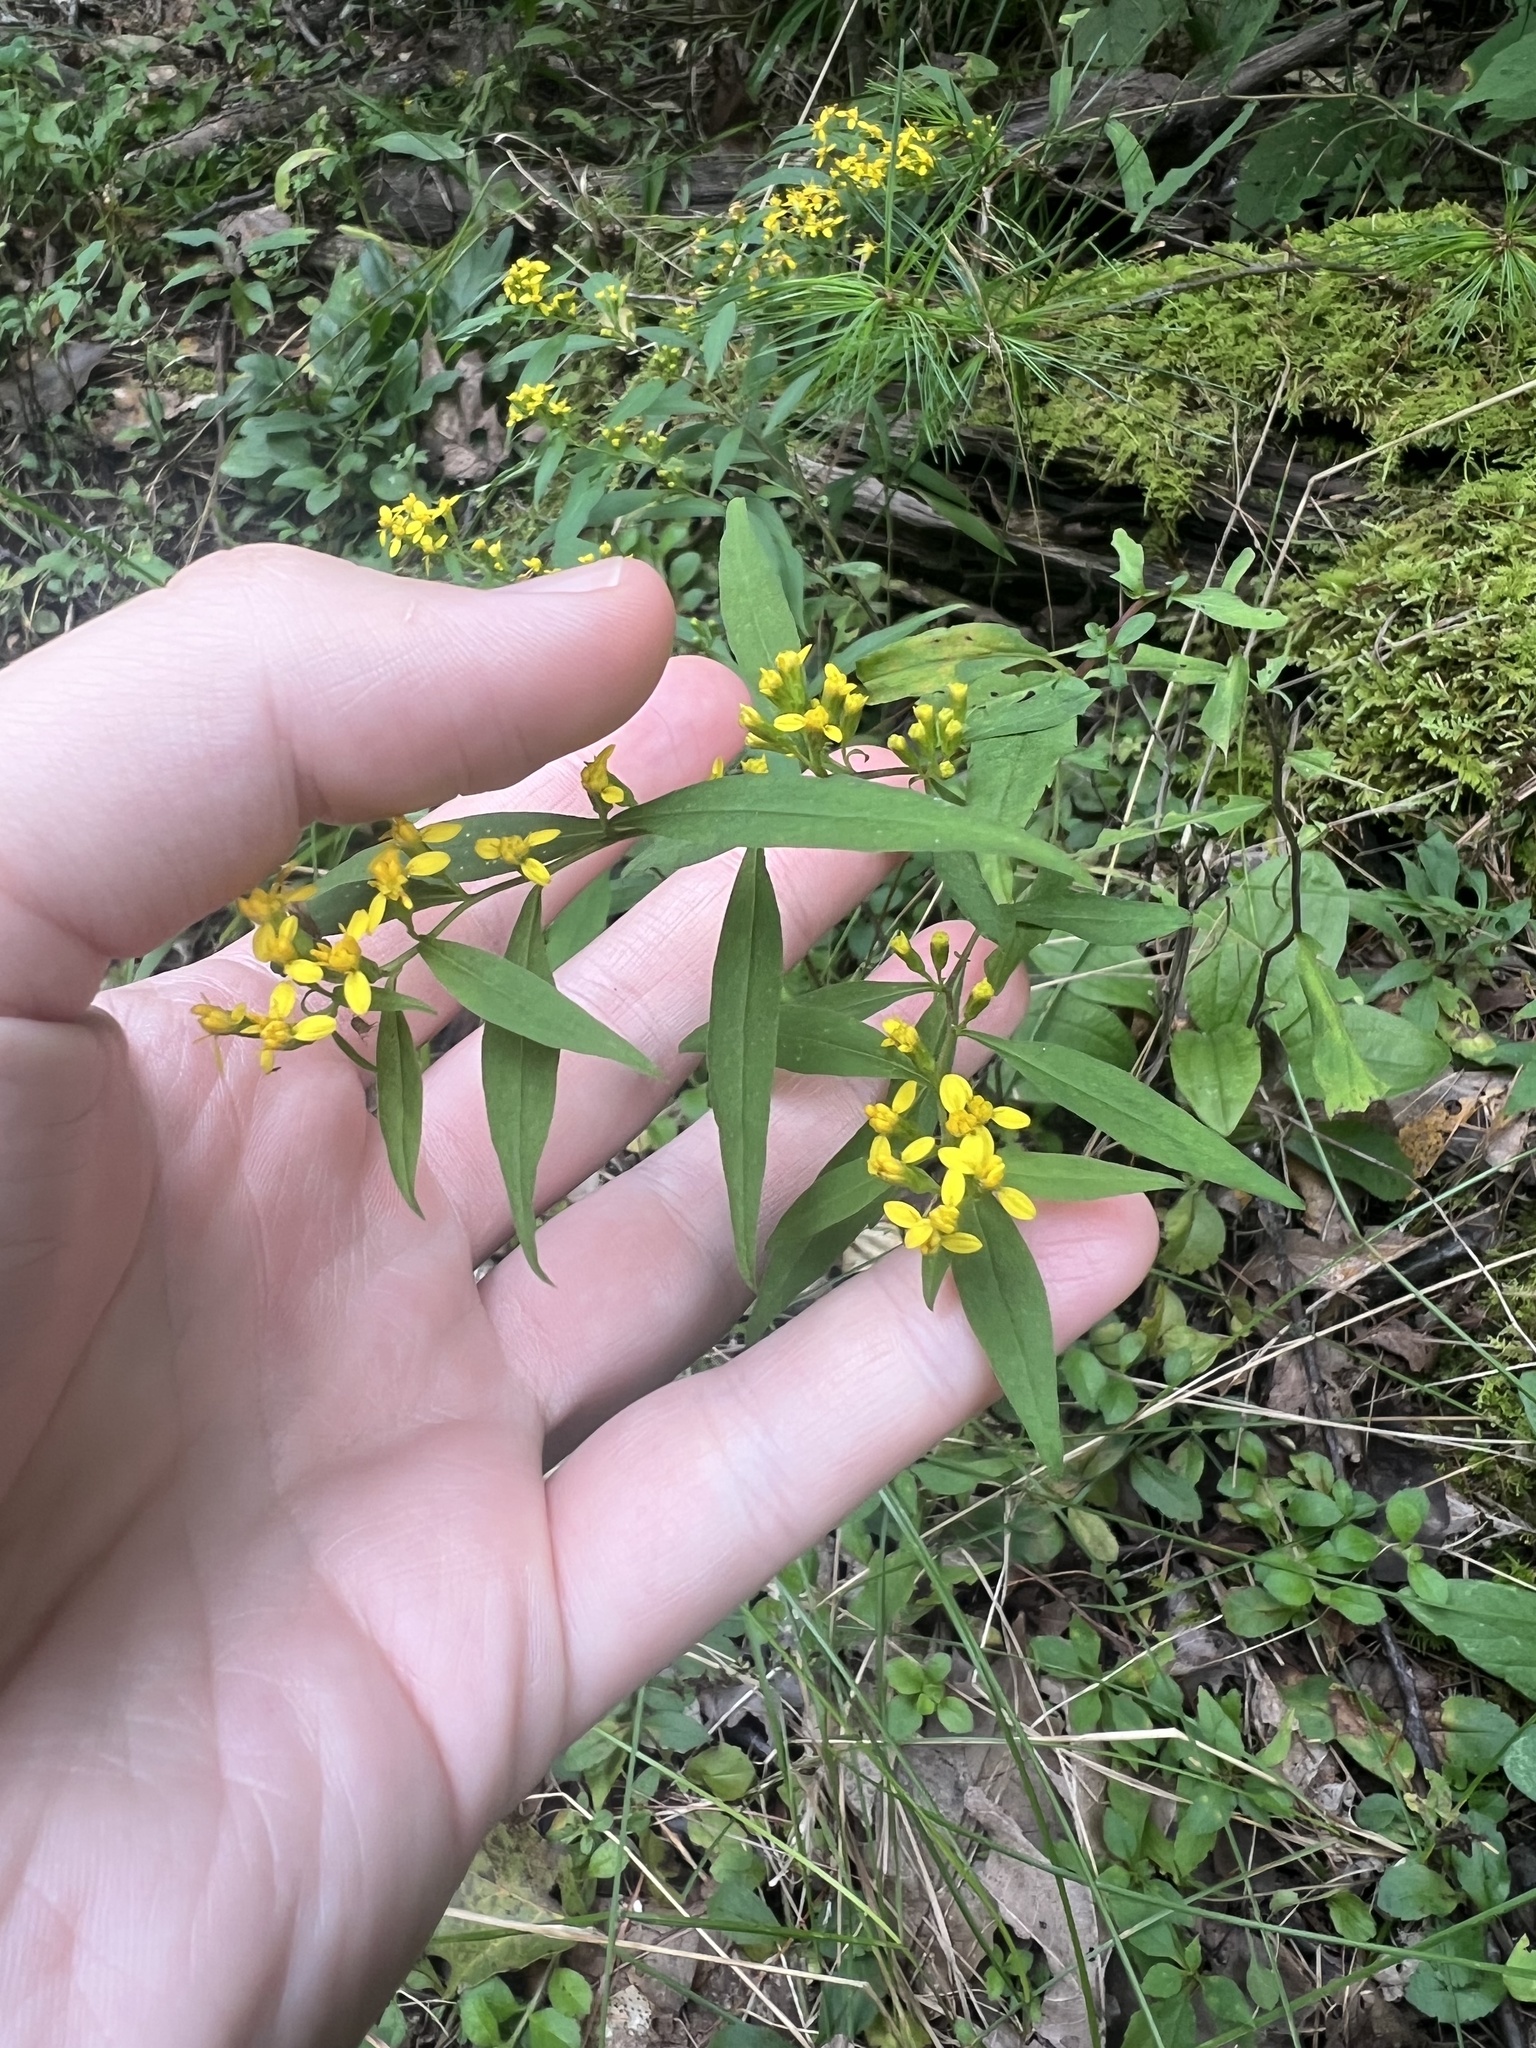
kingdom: Plantae
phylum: Tracheophyta
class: Magnoliopsida
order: Asterales
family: Asteraceae
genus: Solidago
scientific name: Solidago caesia
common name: Woodland goldenrod
